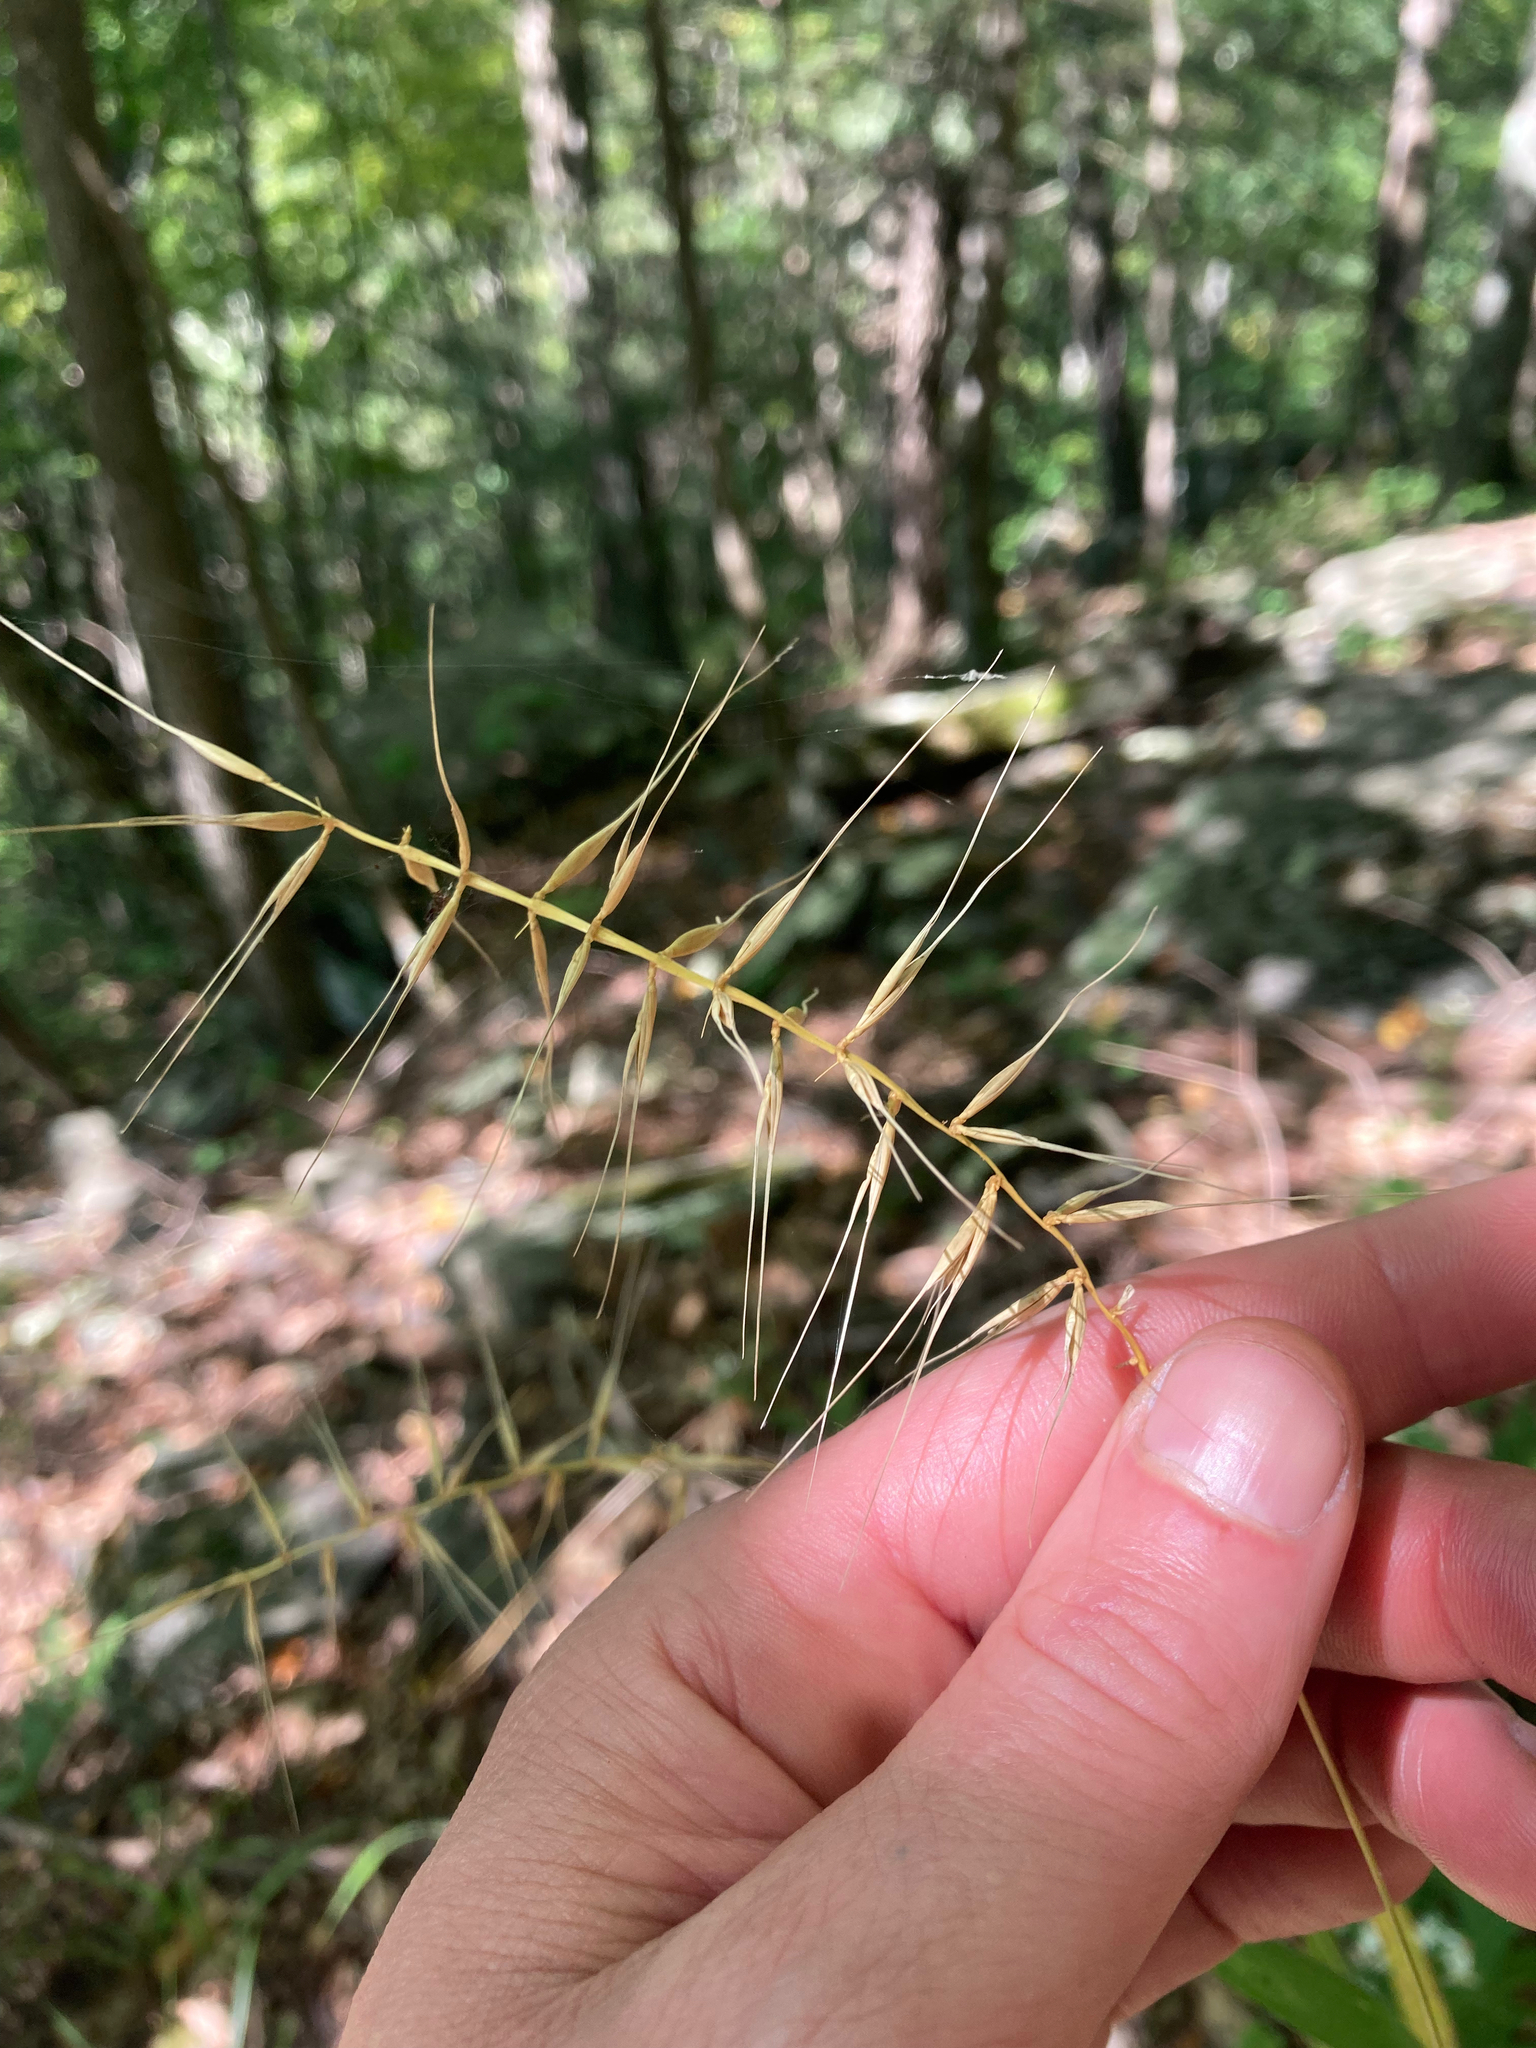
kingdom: Plantae
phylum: Tracheophyta
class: Liliopsida
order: Poales
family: Poaceae
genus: Elymus
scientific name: Elymus hystrix
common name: Bottlebrush grass
